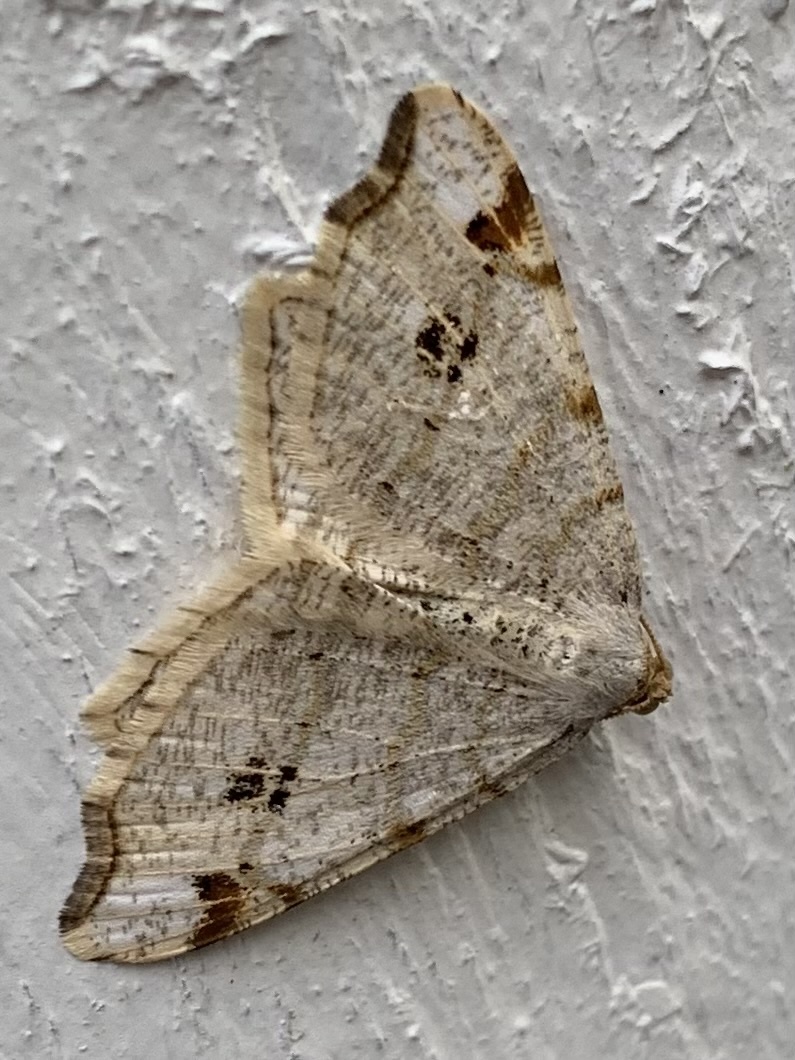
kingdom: Animalia
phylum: Arthropoda
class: Insecta
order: Lepidoptera
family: Geometridae
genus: Macaria
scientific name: Macaria notata
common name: Peacock moth
